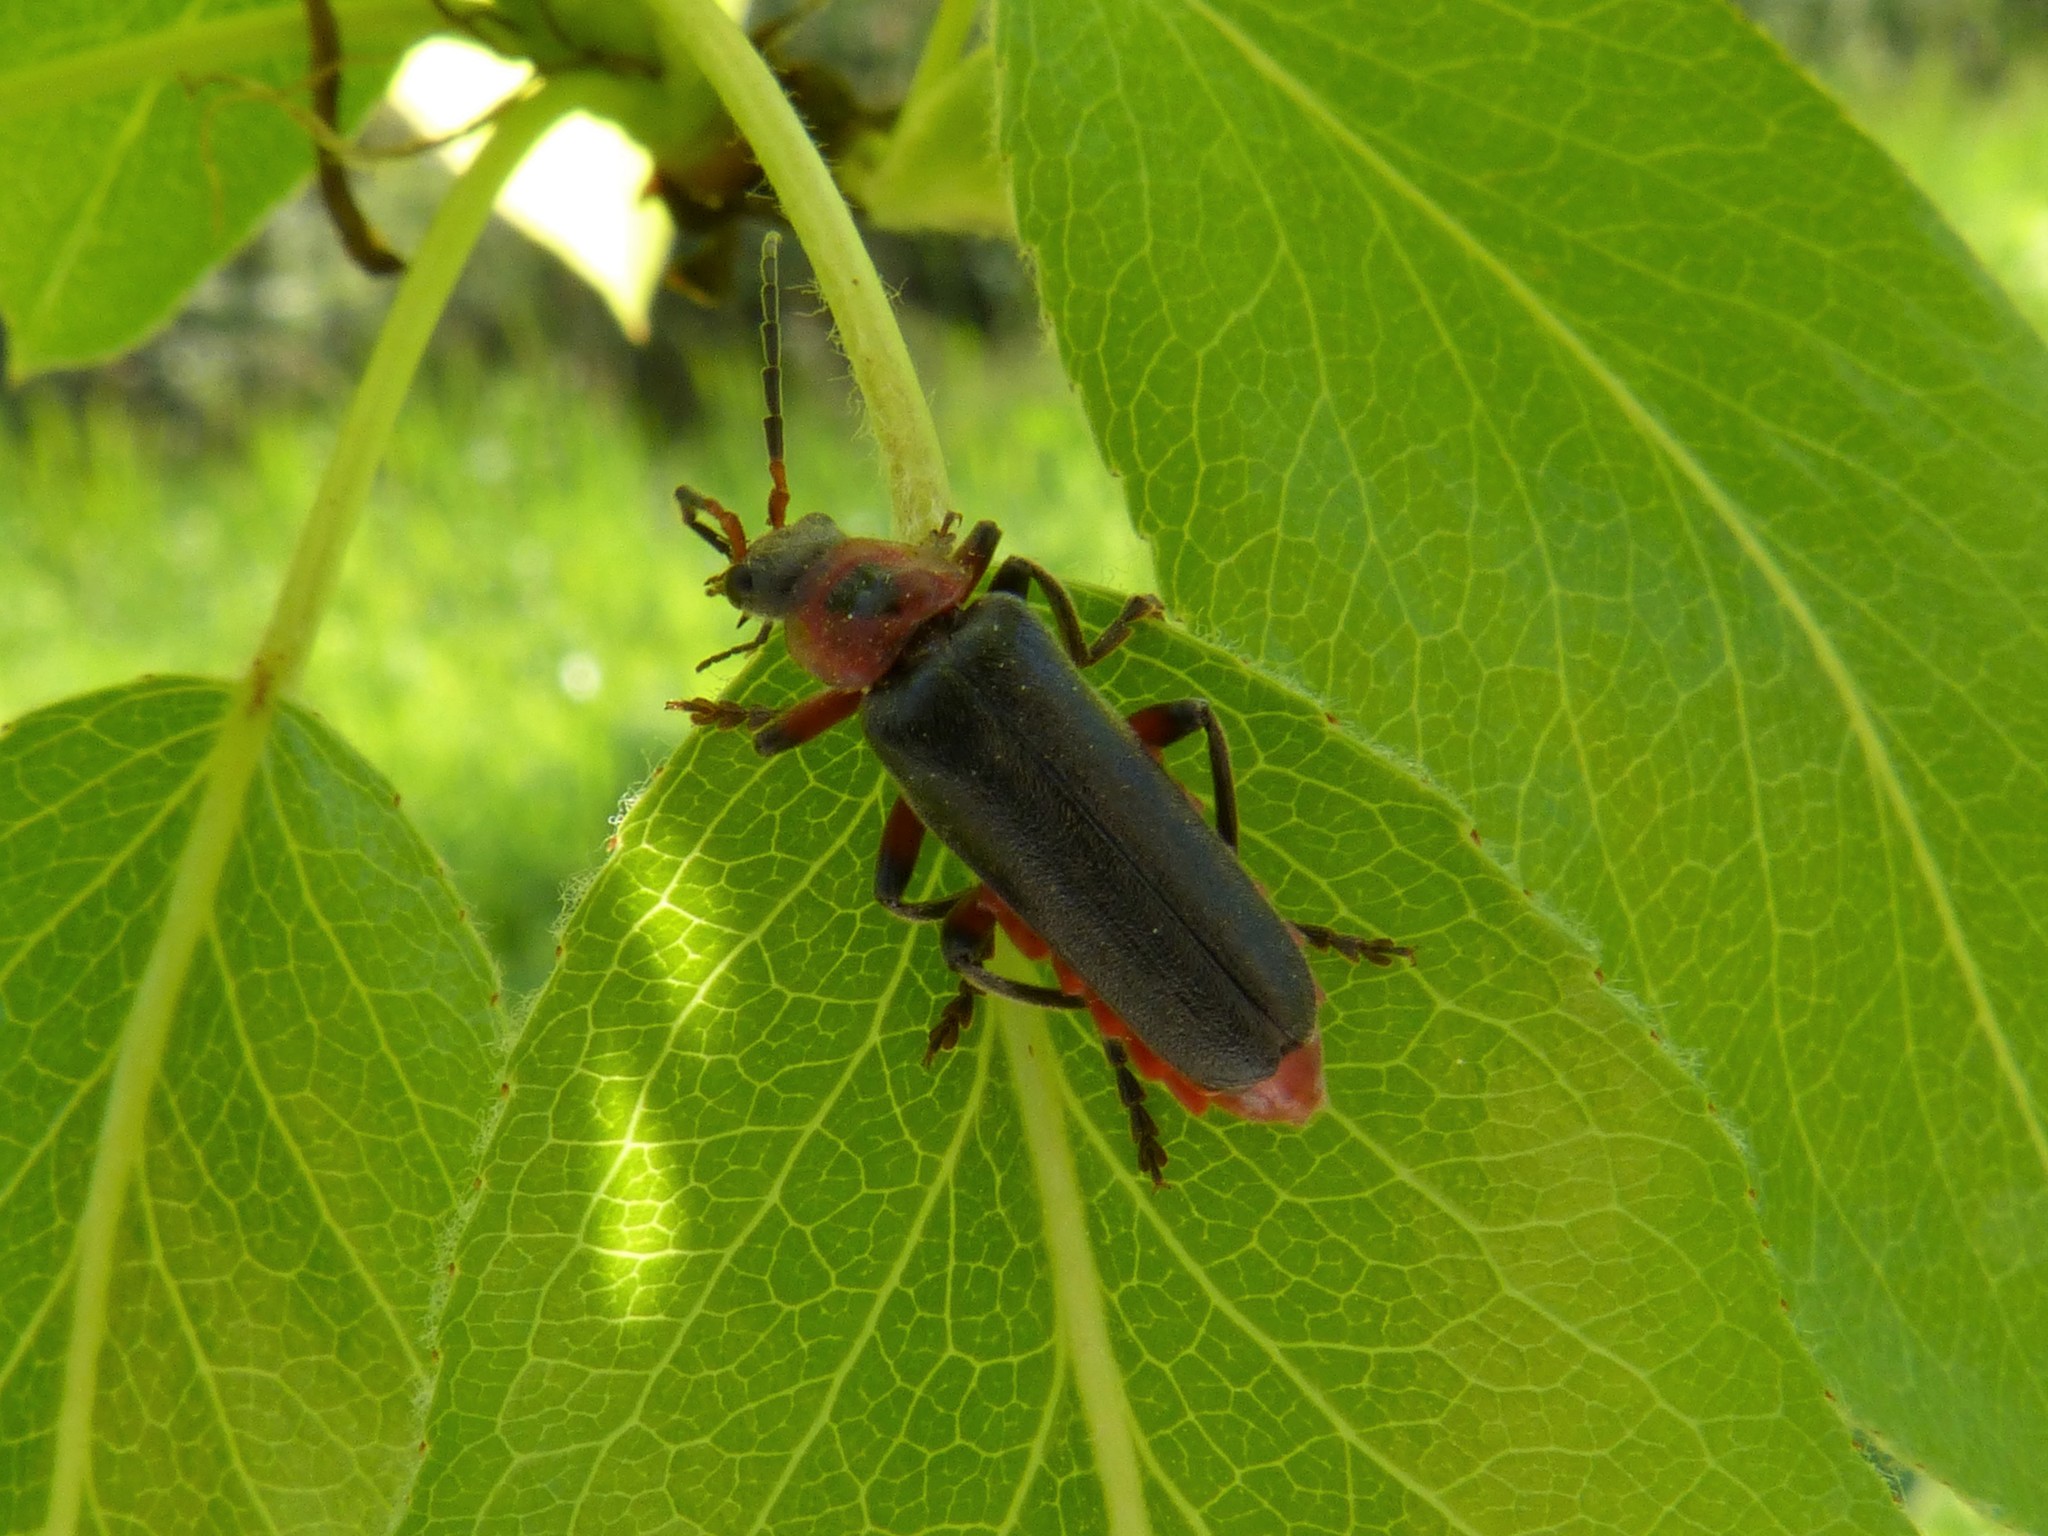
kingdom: Animalia
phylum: Arthropoda
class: Insecta
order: Coleoptera
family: Cantharidae
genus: Cantharis
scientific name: Cantharis rustica
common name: Soldier beetle
